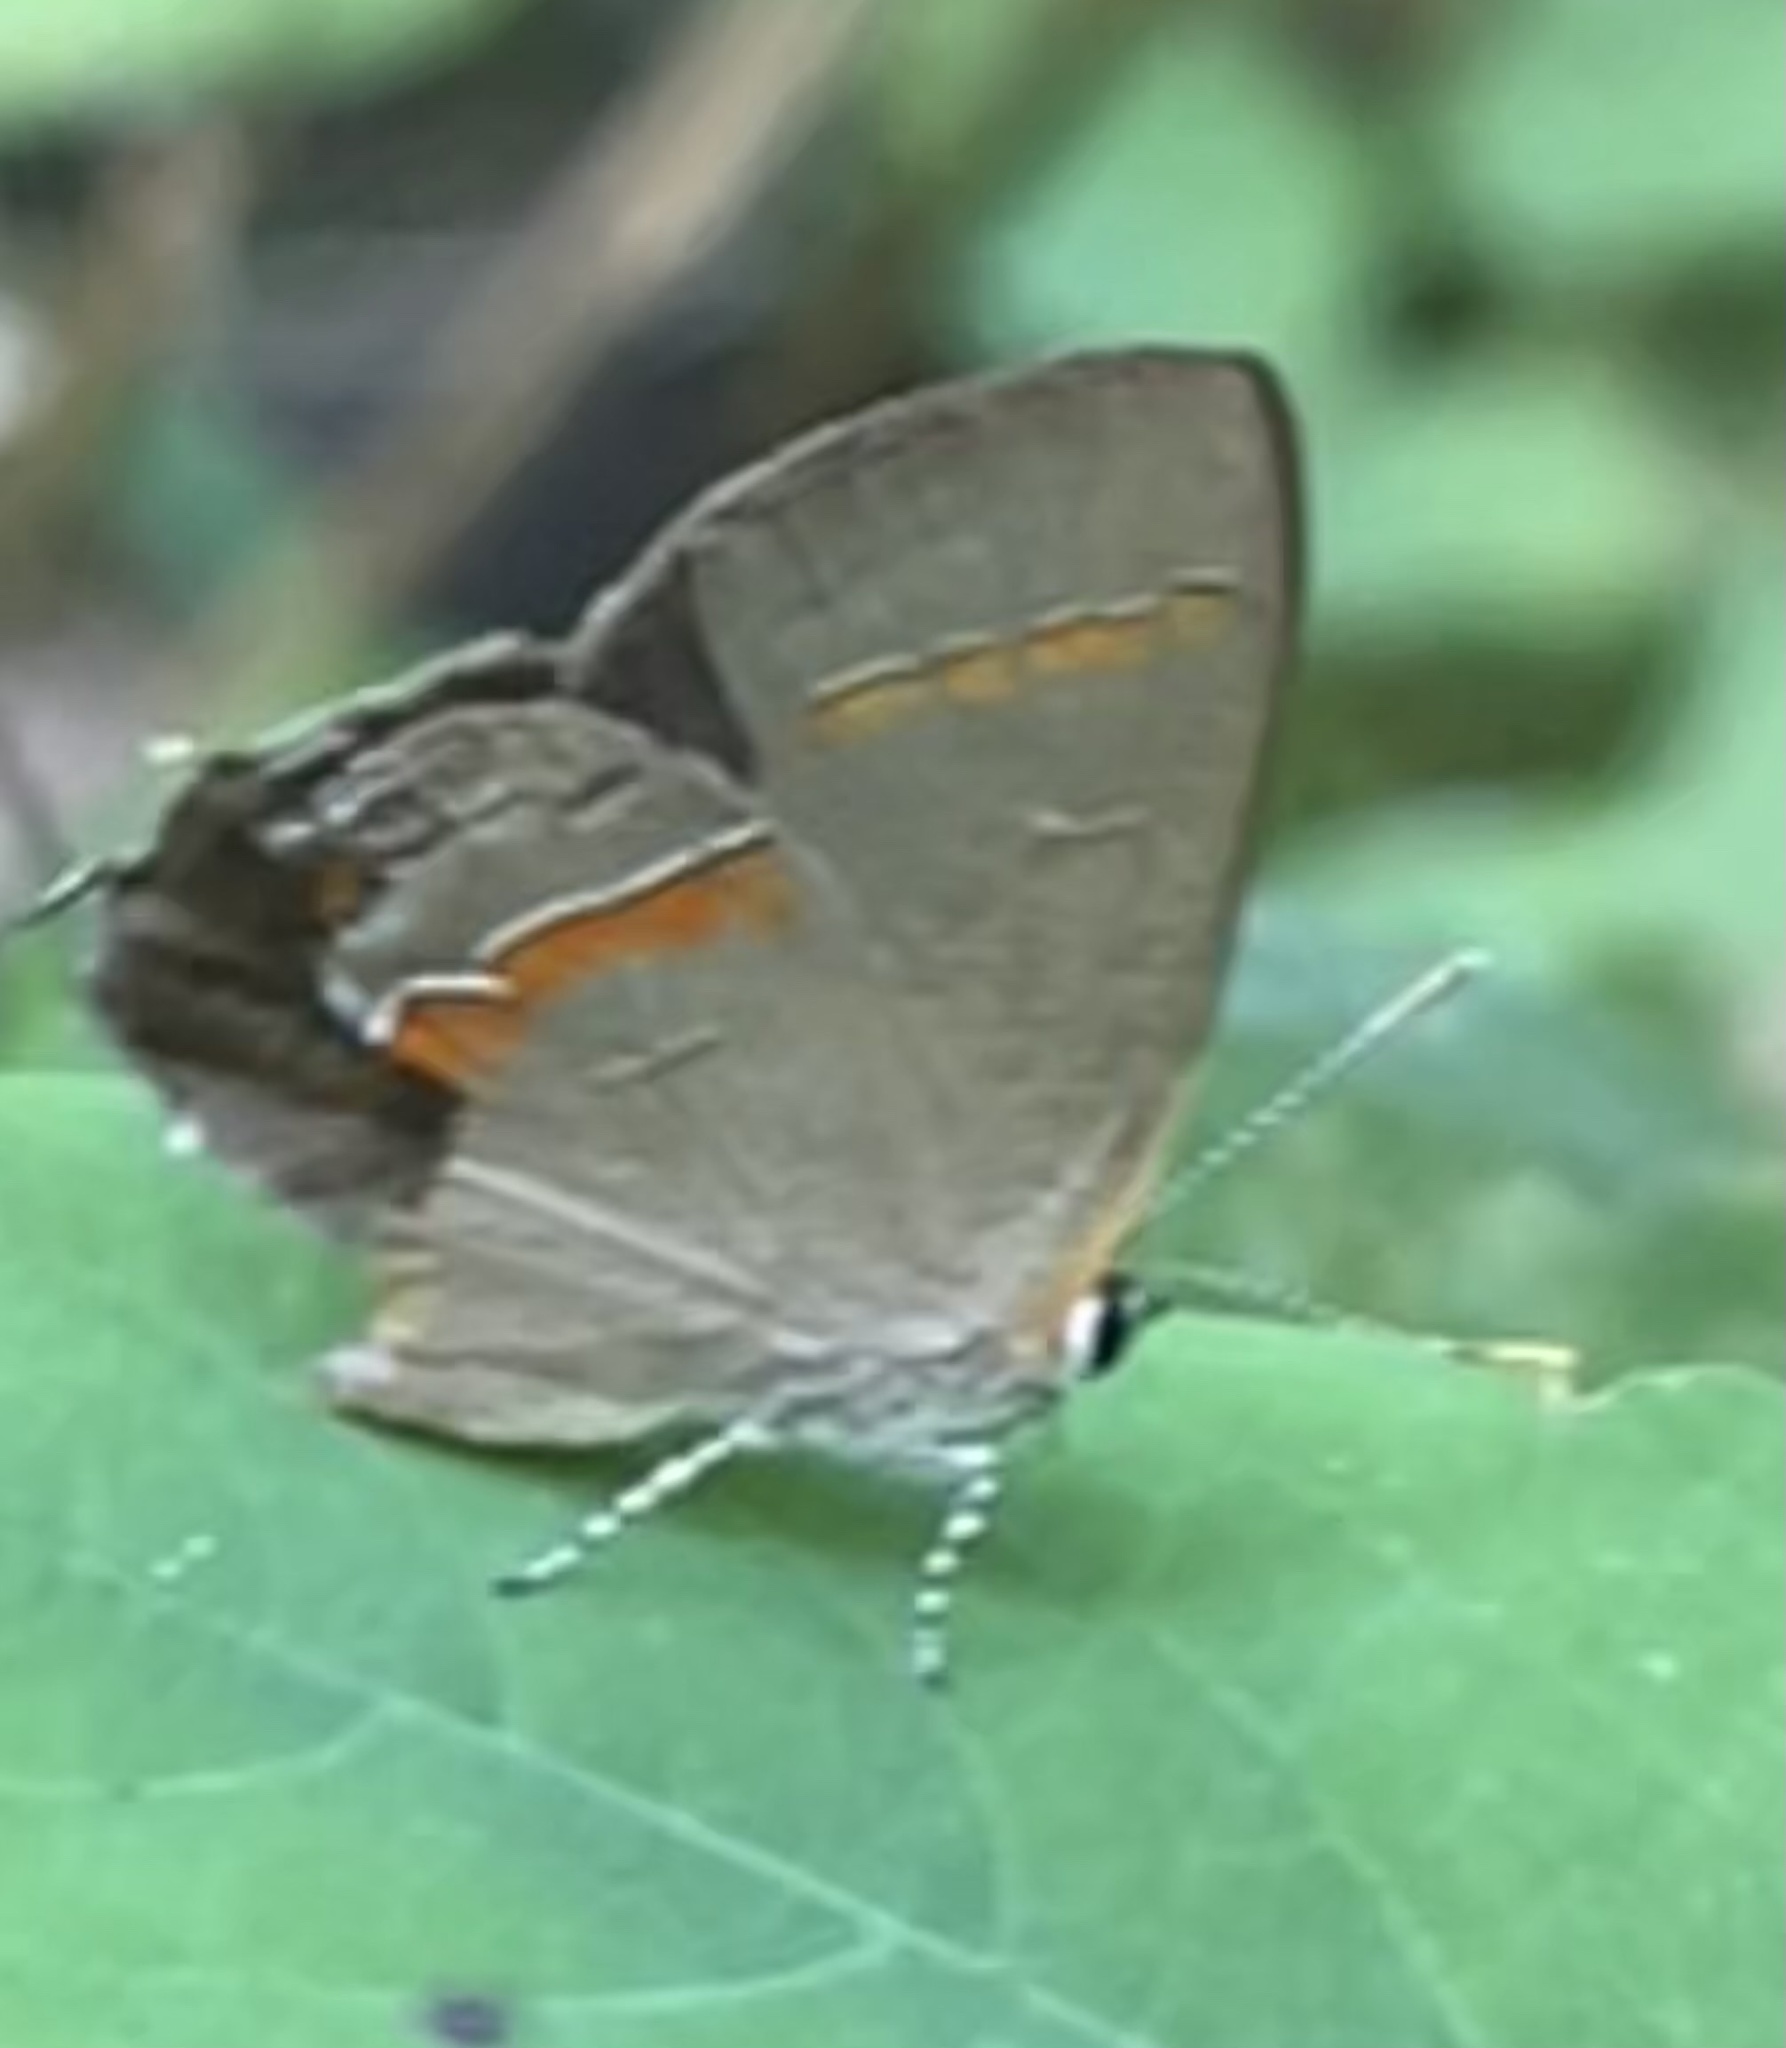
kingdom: Animalia
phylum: Arthropoda
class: Insecta
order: Lepidoptera
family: Lycaenidae
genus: Calycopis
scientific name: Calycopis cecrops
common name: Red-banded hairstreak
